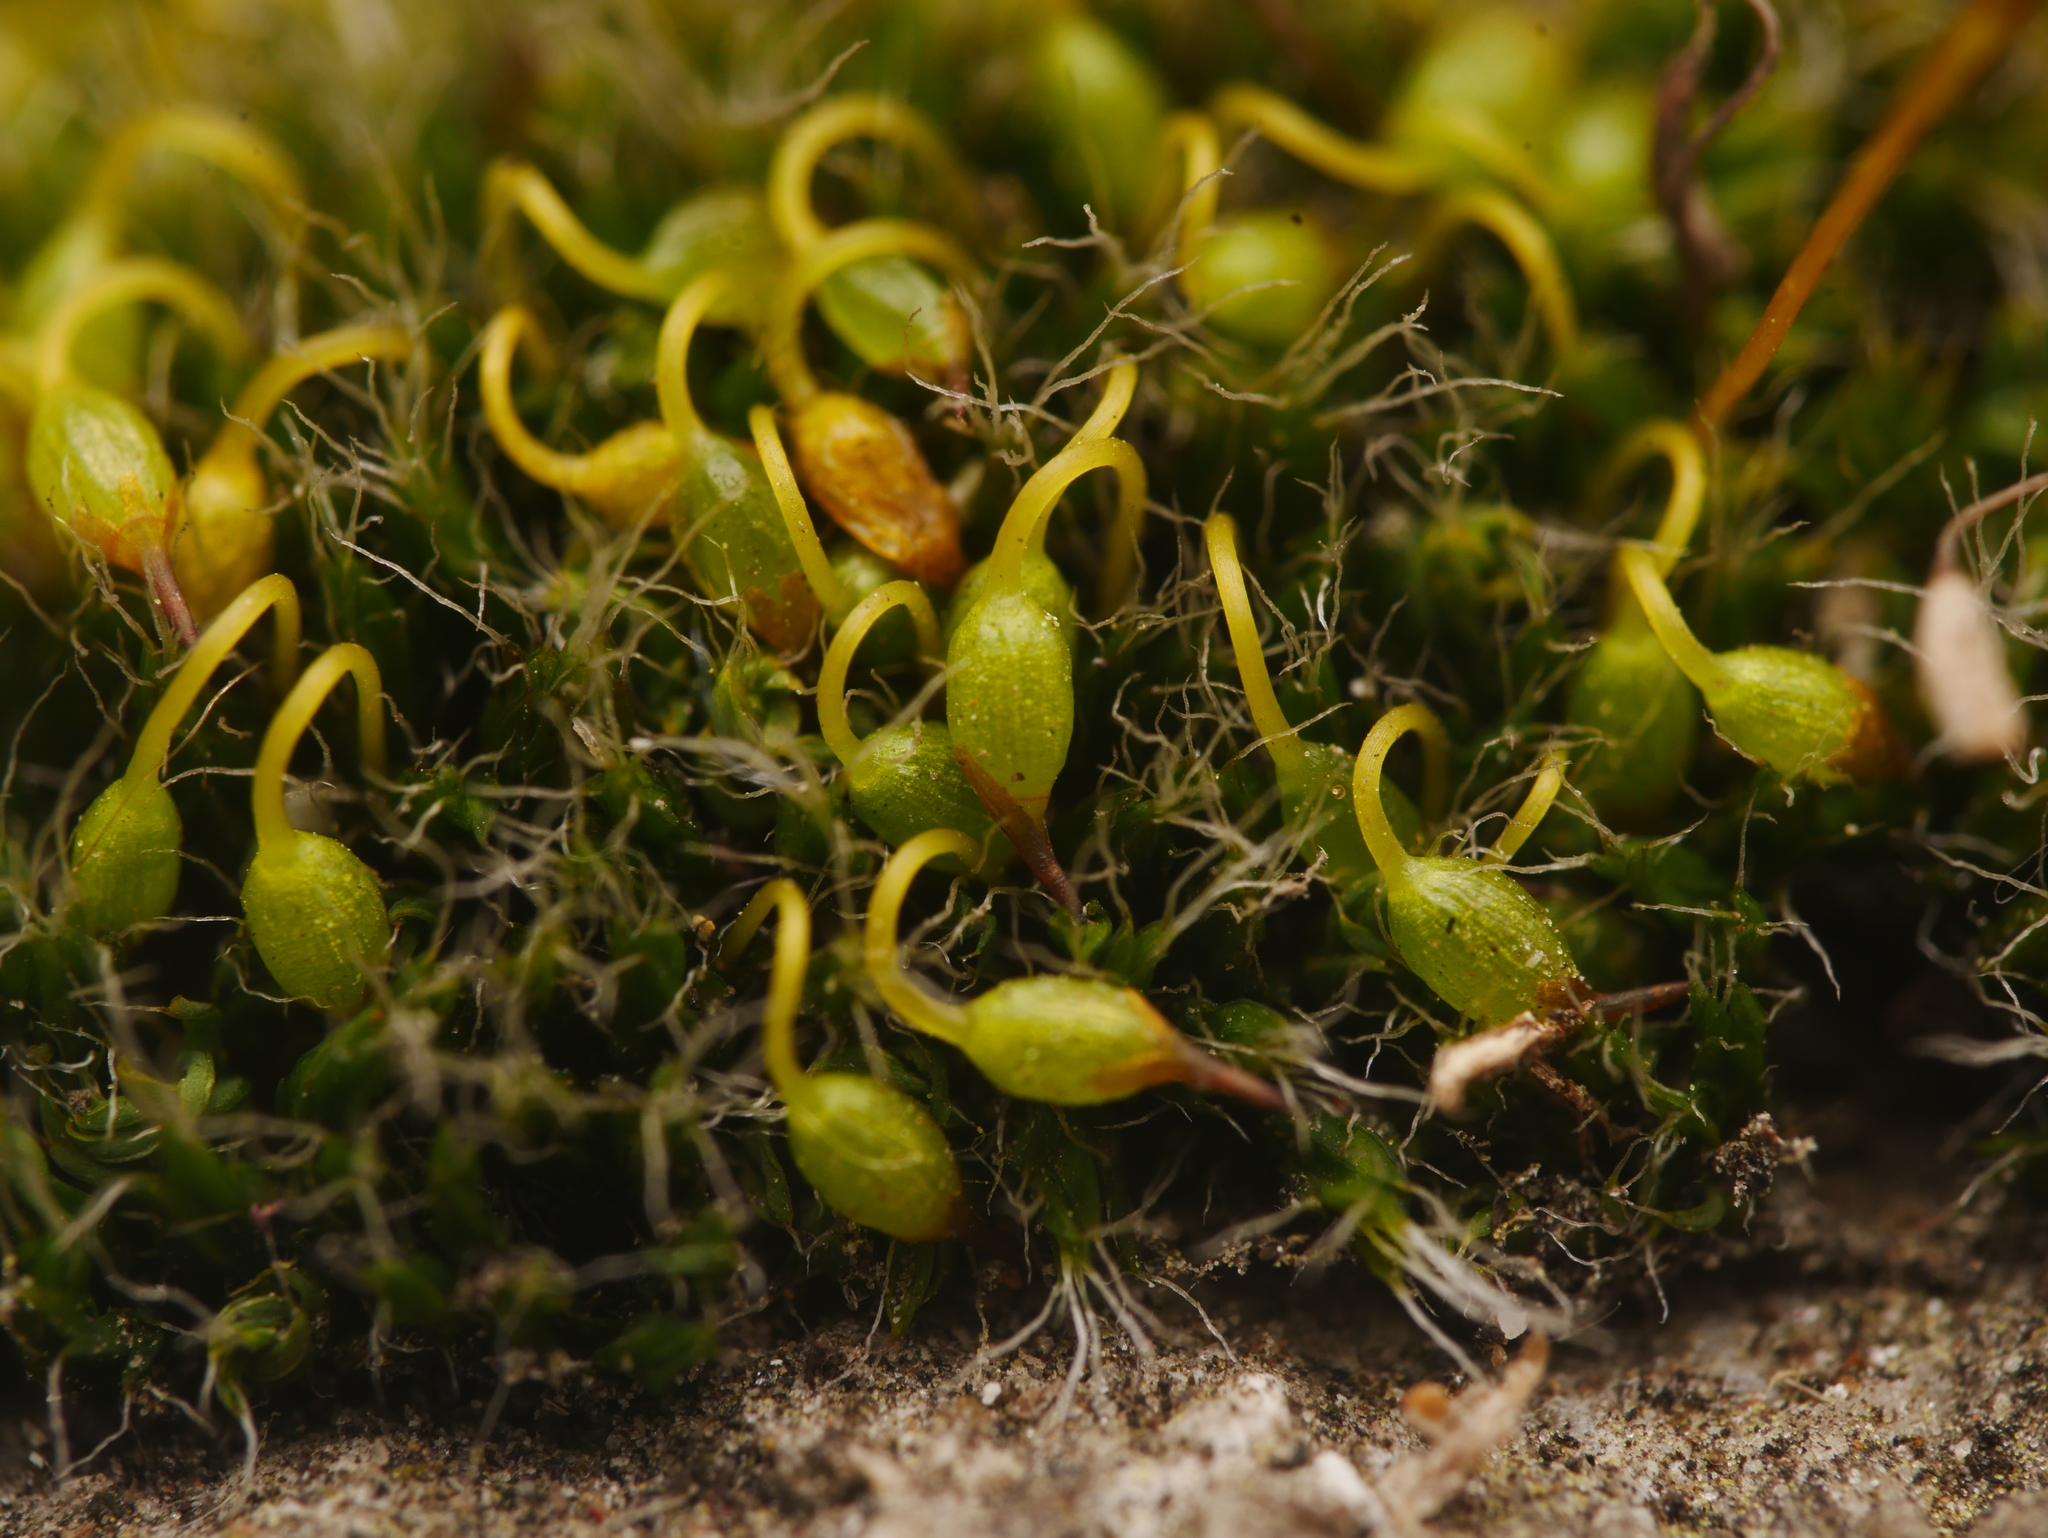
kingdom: Plantae
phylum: Bryophyta
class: Bryopsida
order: Grimmiales
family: Grimmiaceae
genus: Grimmia
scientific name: Grimmia pulvinata
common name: Grey-cushioned grimmia
